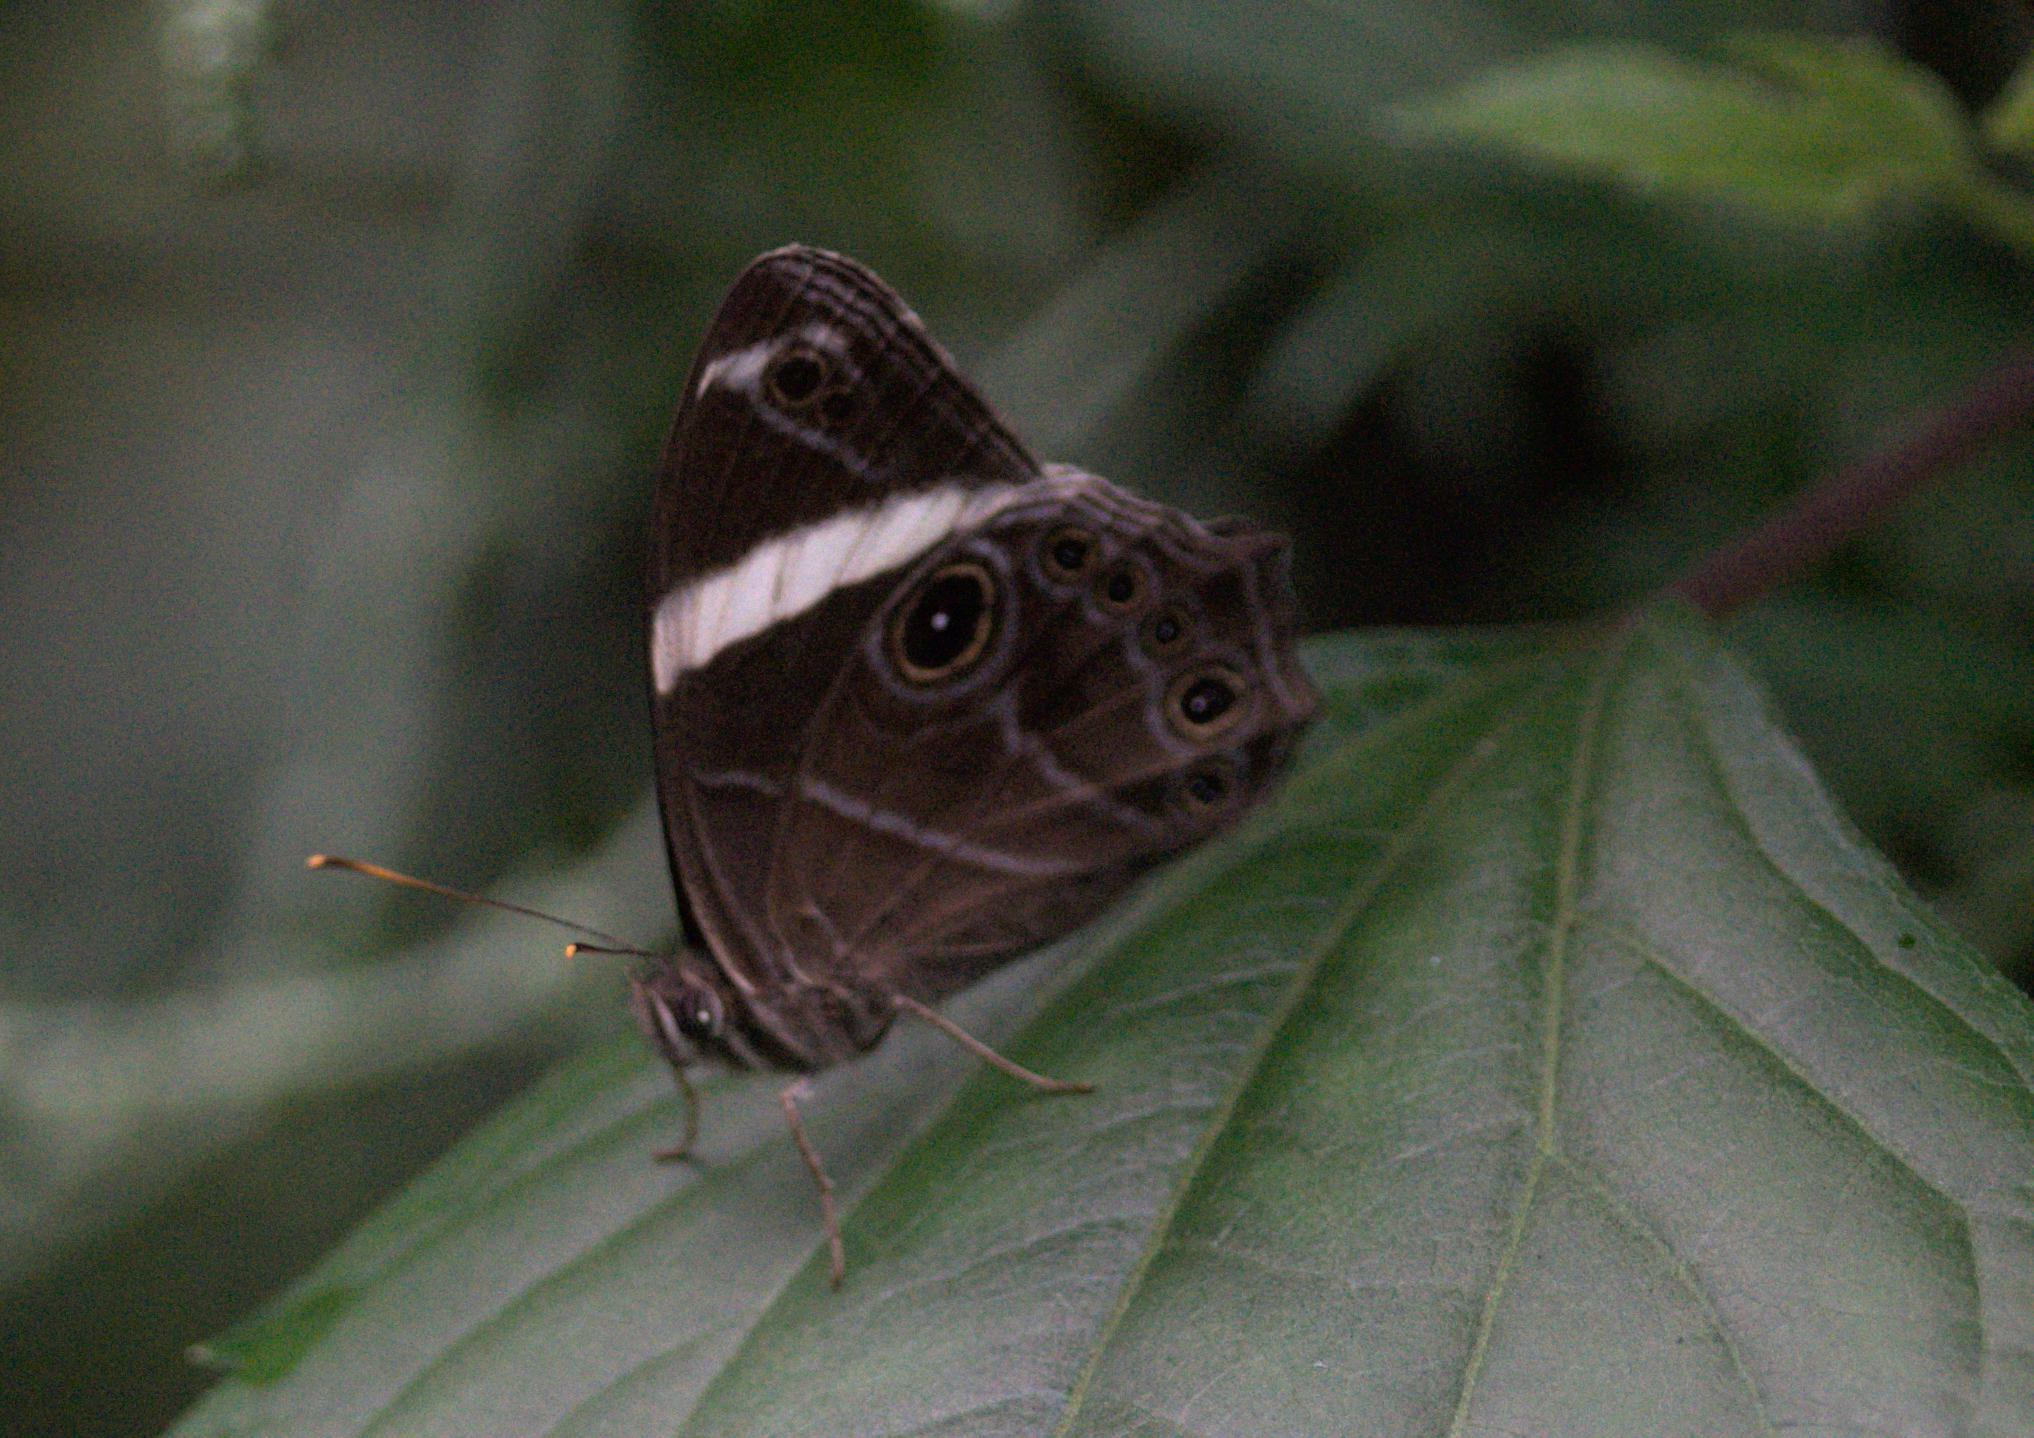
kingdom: Animalia
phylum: Arthropoda
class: Insecta
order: Lepidoptera
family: Nymphalidae
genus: Lethe
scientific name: Lethe confusa
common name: Banded treebrown
